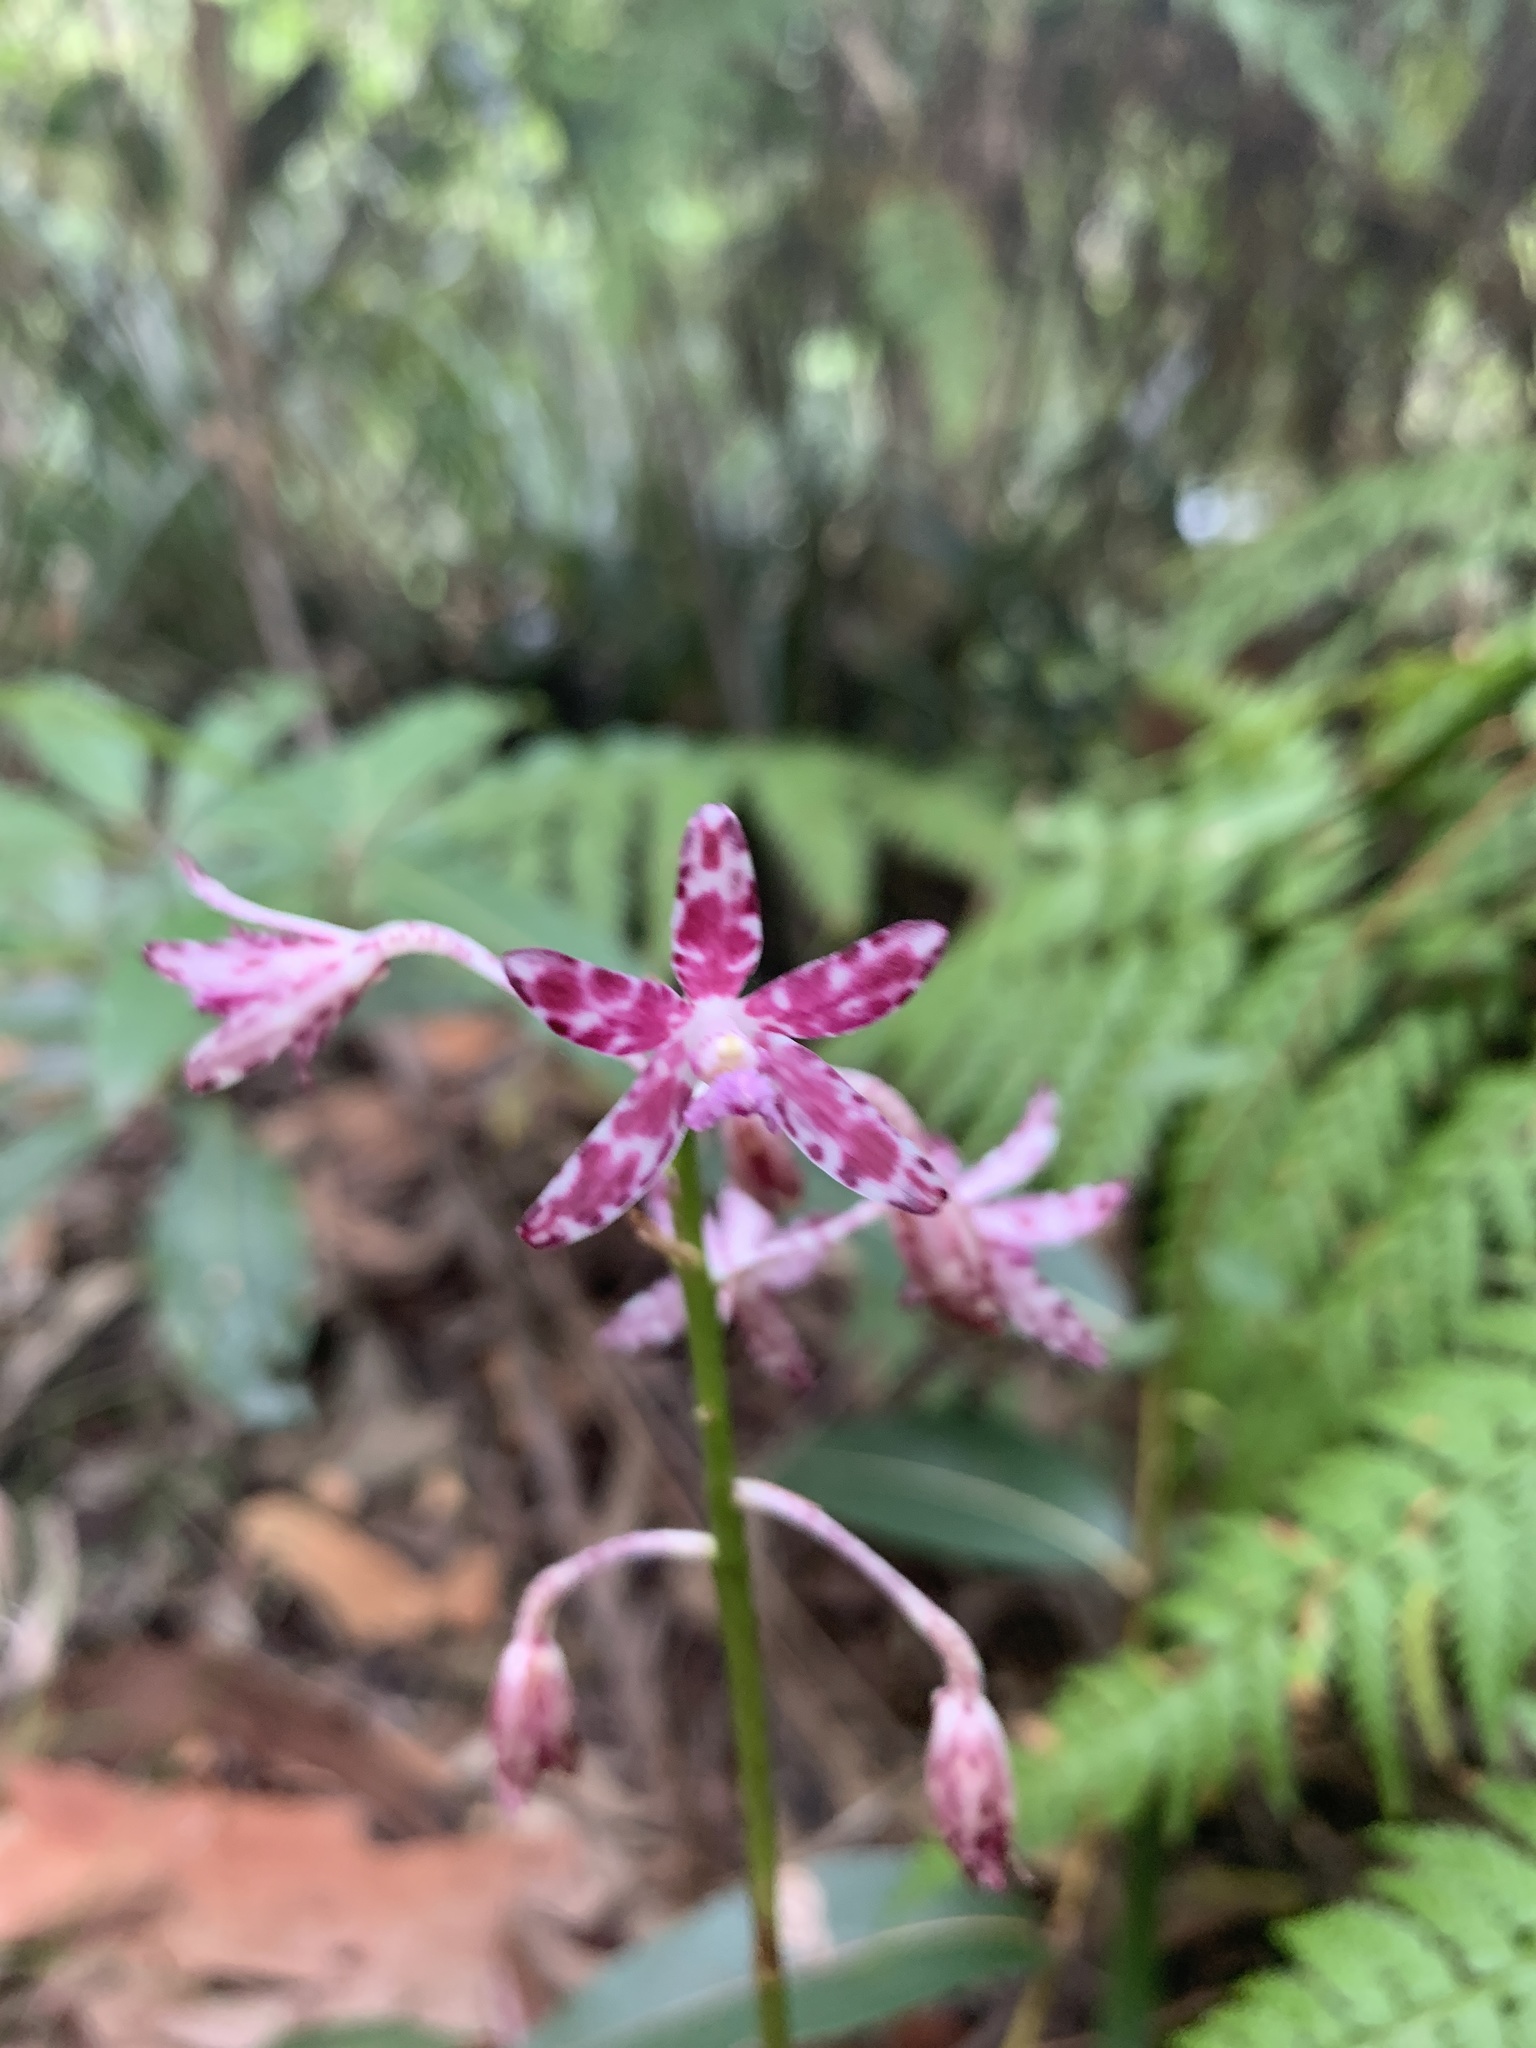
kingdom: Plantae
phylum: Tracheophyta
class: Liliopsida
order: Asparagales
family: Orchidaceae
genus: Dipodium
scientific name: Dipodium variegatum
